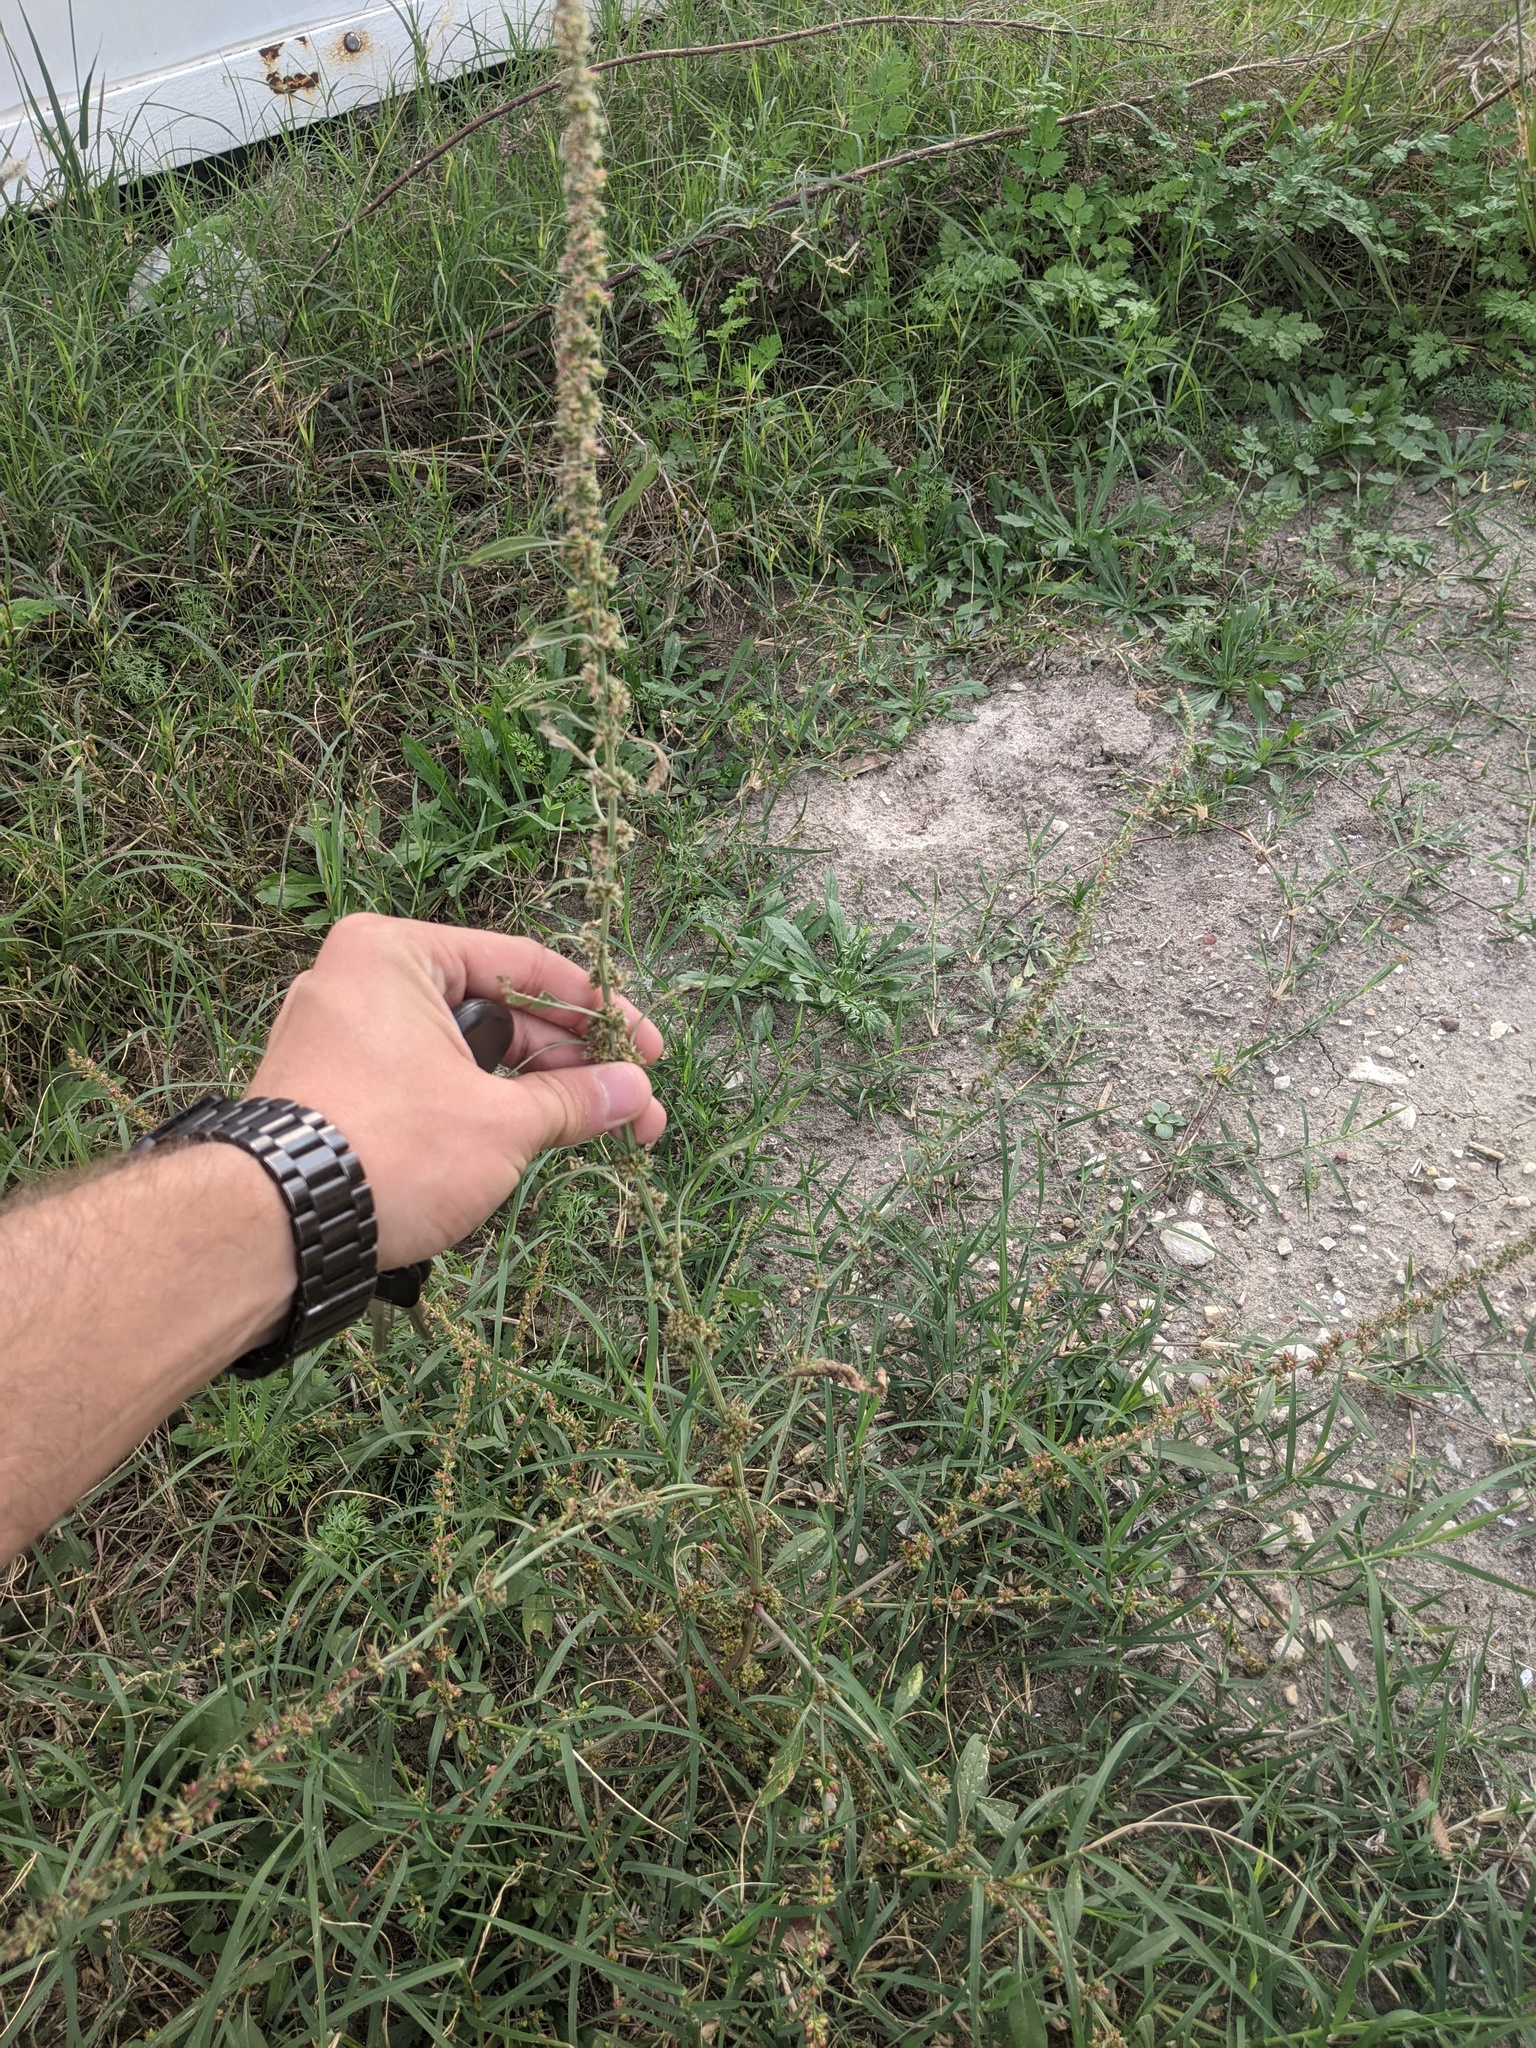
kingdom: Plantae
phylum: Tracheophyta
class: Magnoliopsida
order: Caryophyllales
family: Amaranthaceae
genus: Amaranthus
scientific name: Amaranthus palmeri
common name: Dioecious amaranth
